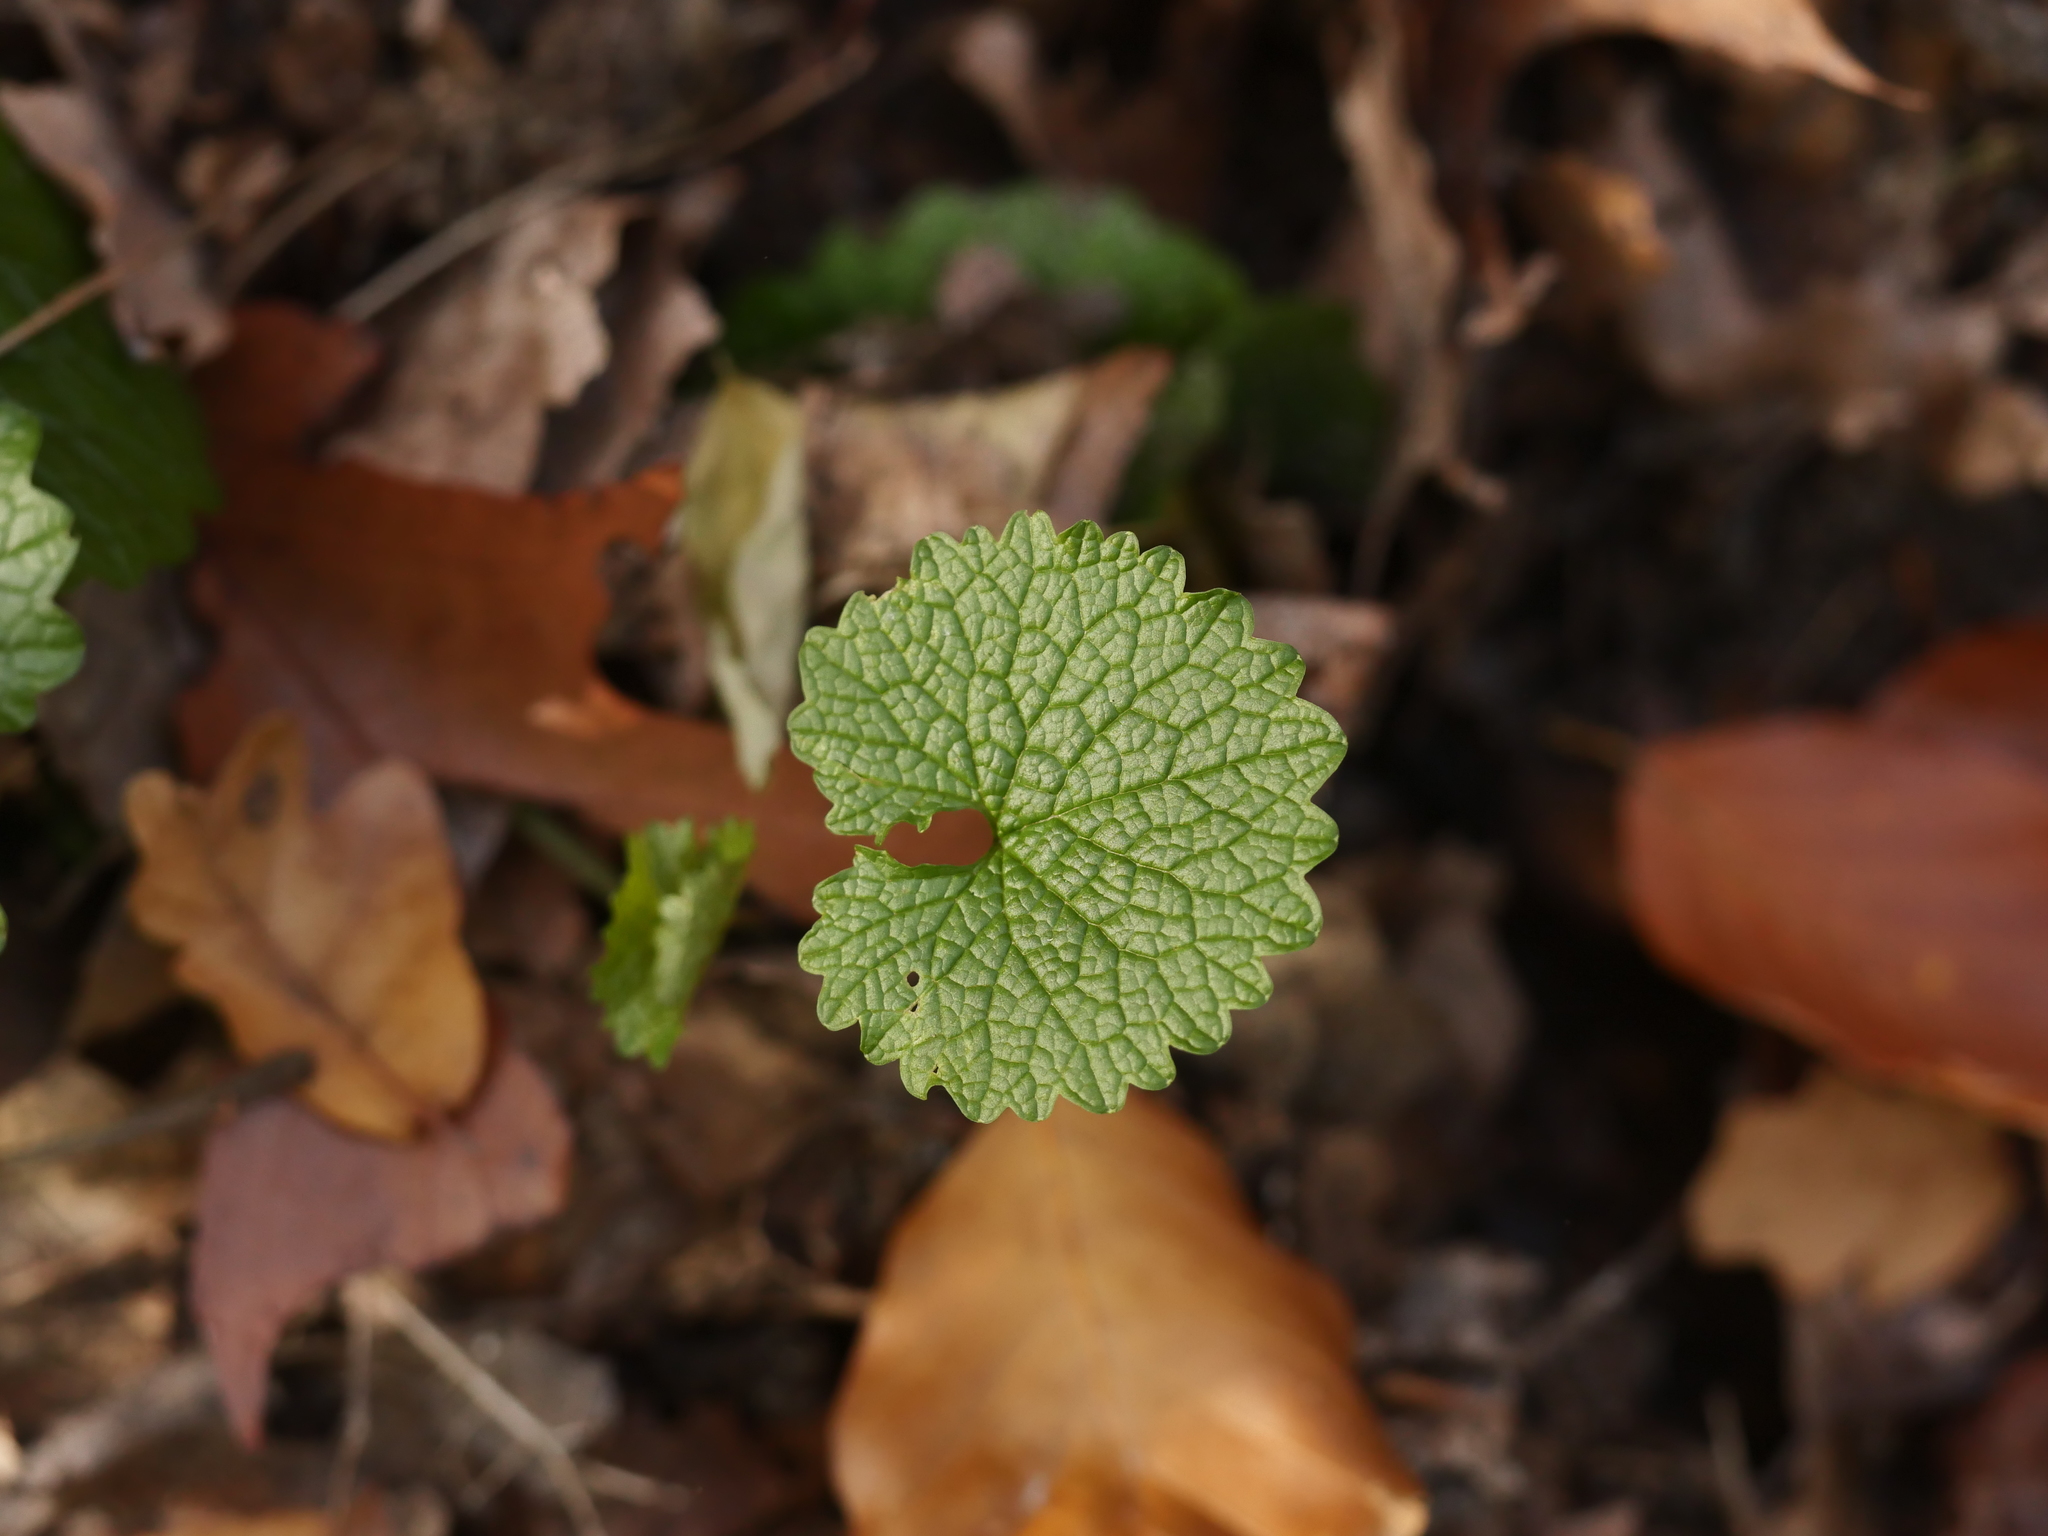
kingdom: Plantae
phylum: Tracheophyta
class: Magnoliopsida
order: Brassicales
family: Brassicaceae
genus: Alliaria
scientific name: Alliaria petiolata
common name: Garlic mustard
